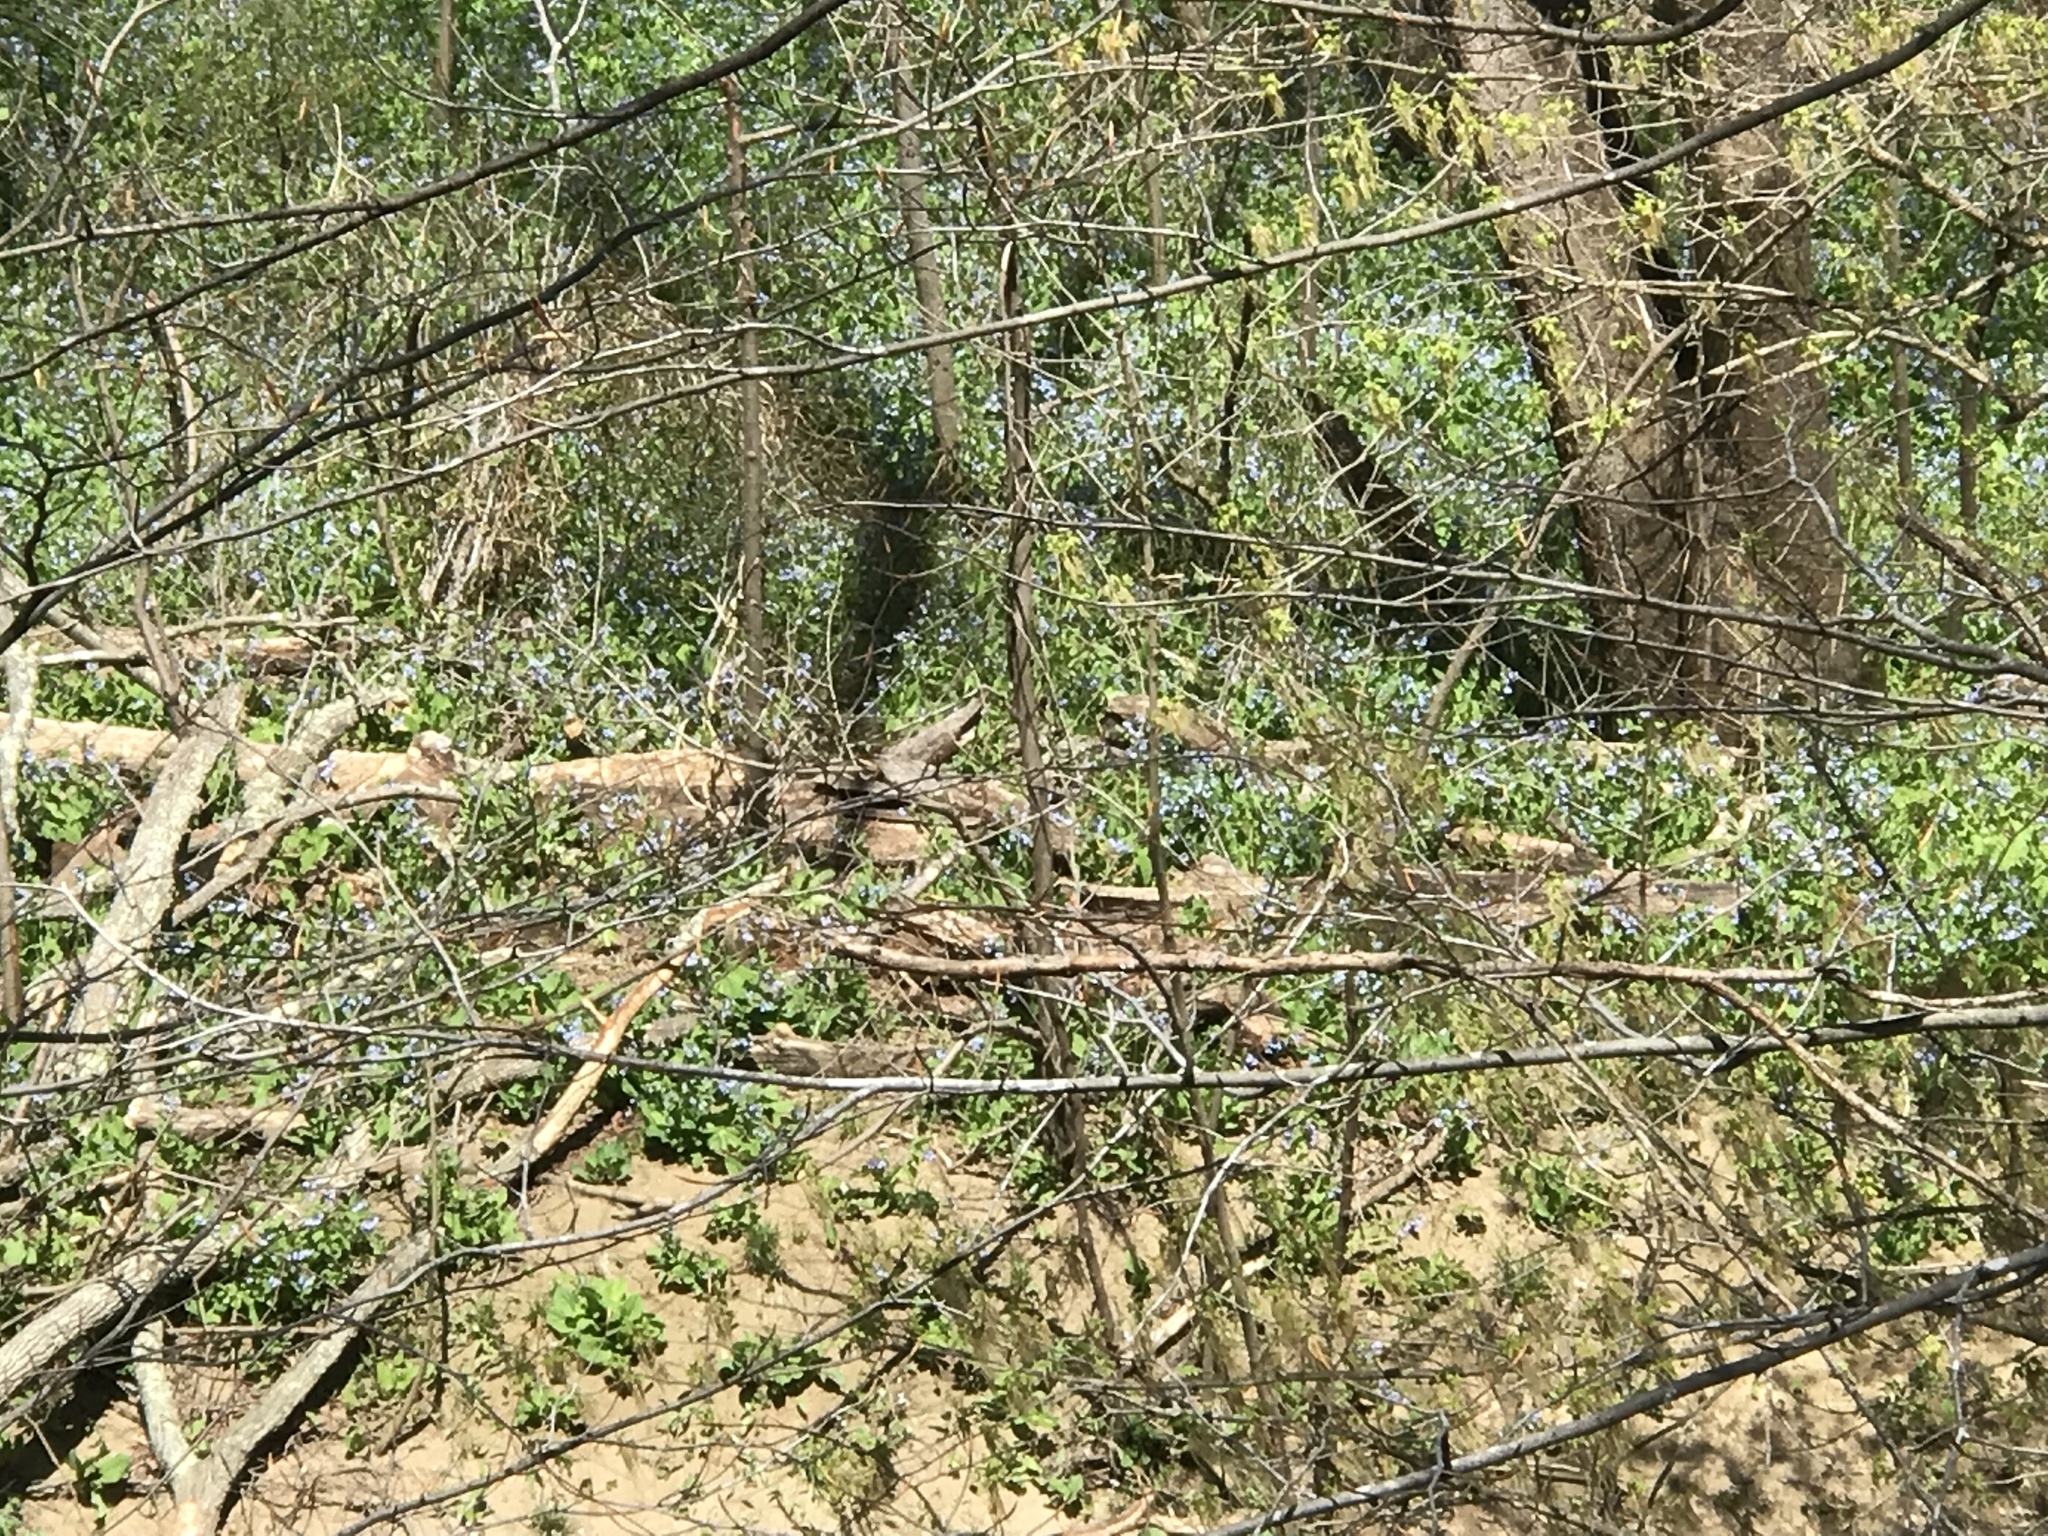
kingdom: Plantae
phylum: Tracheophyta
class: Magnoliopsida
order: Boraginales
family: Boraginaceae
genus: Mertensia
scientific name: Mertensia virginica
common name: Virginia bluebells
